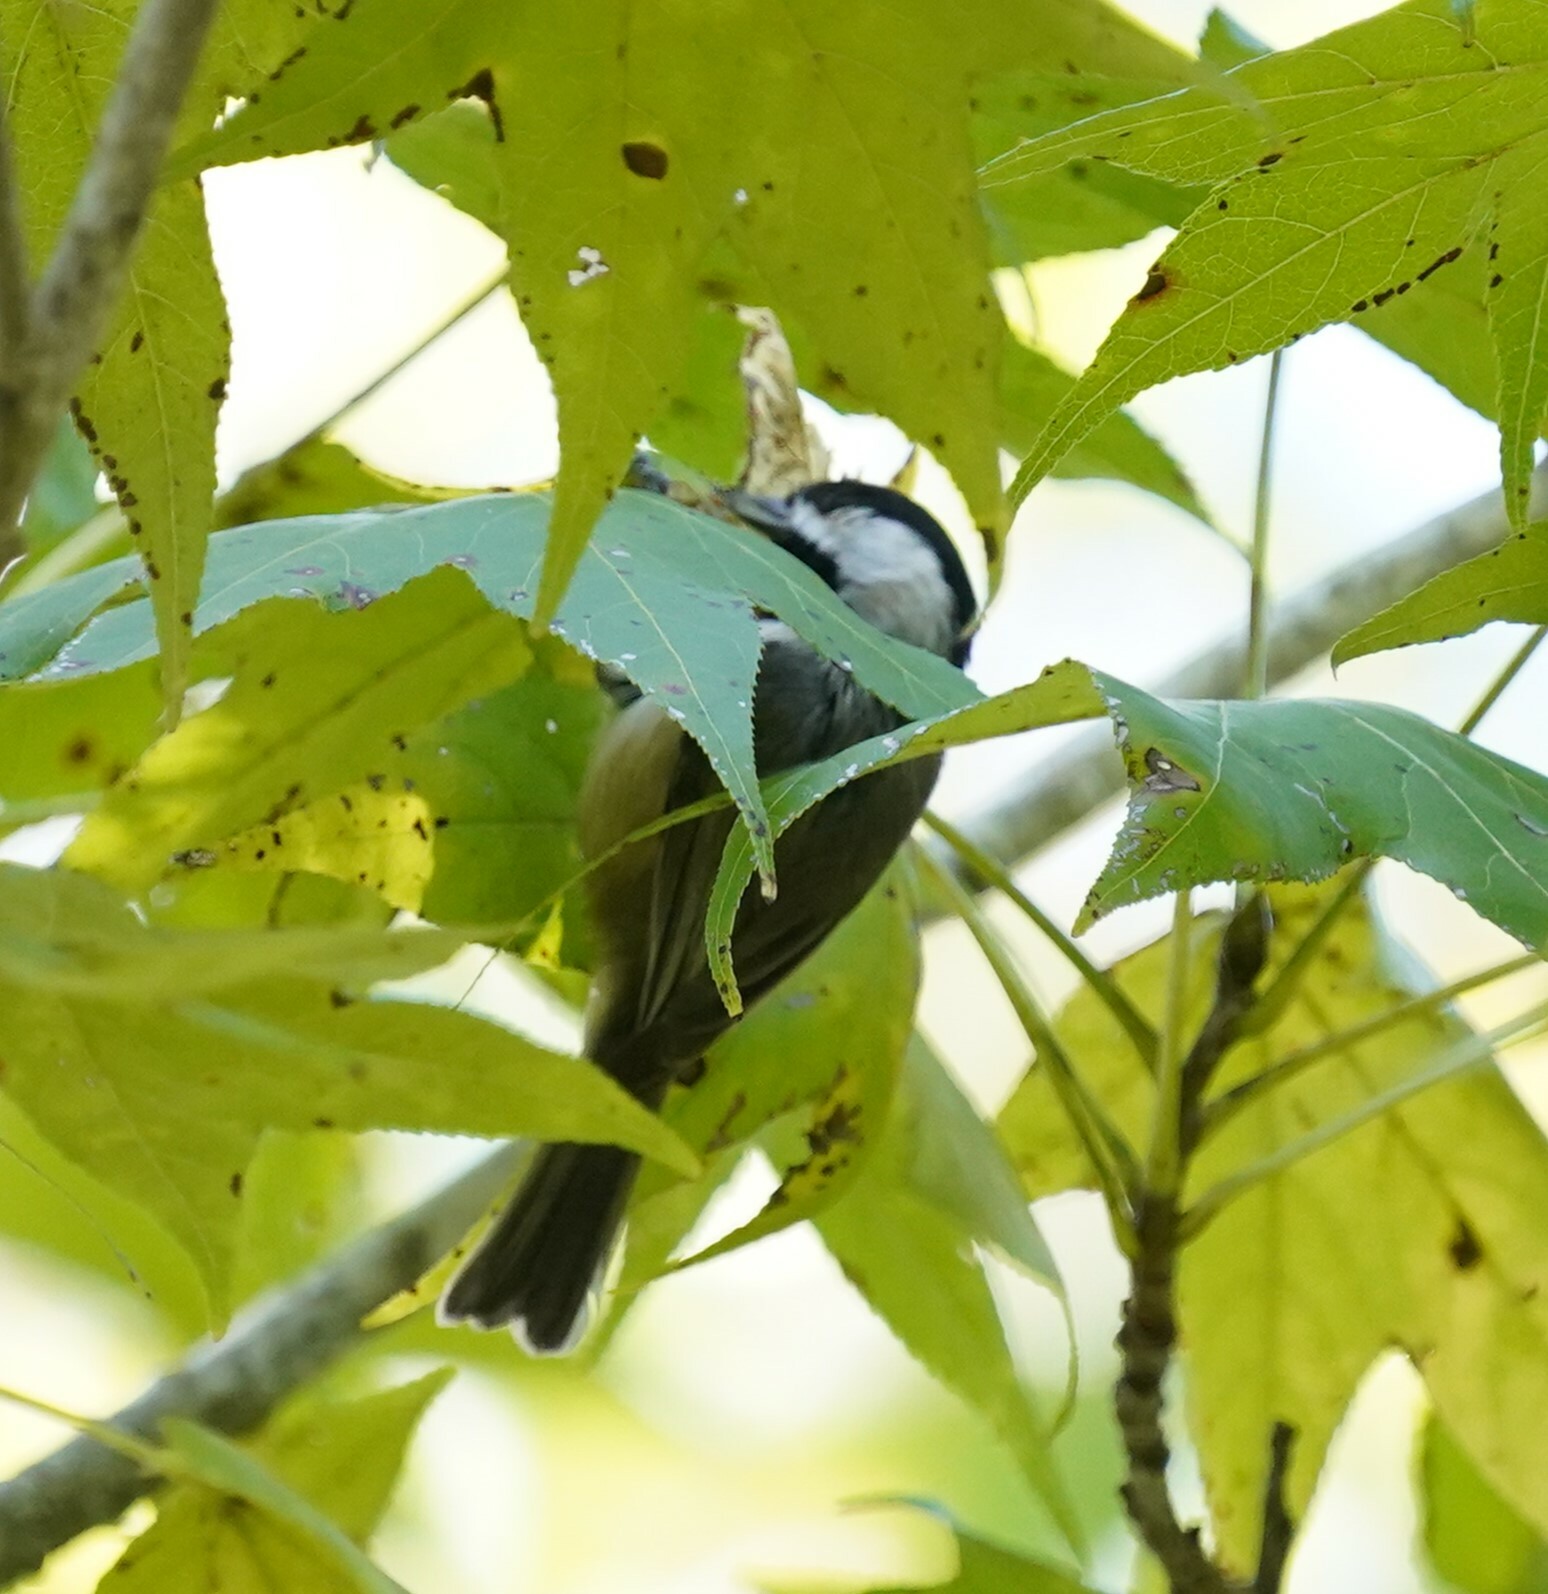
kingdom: Animalia
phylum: Chordata
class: Aves
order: Passeriformes
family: Paridae
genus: Poecile
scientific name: Poecile carolinensis
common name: Carolina chickadee
